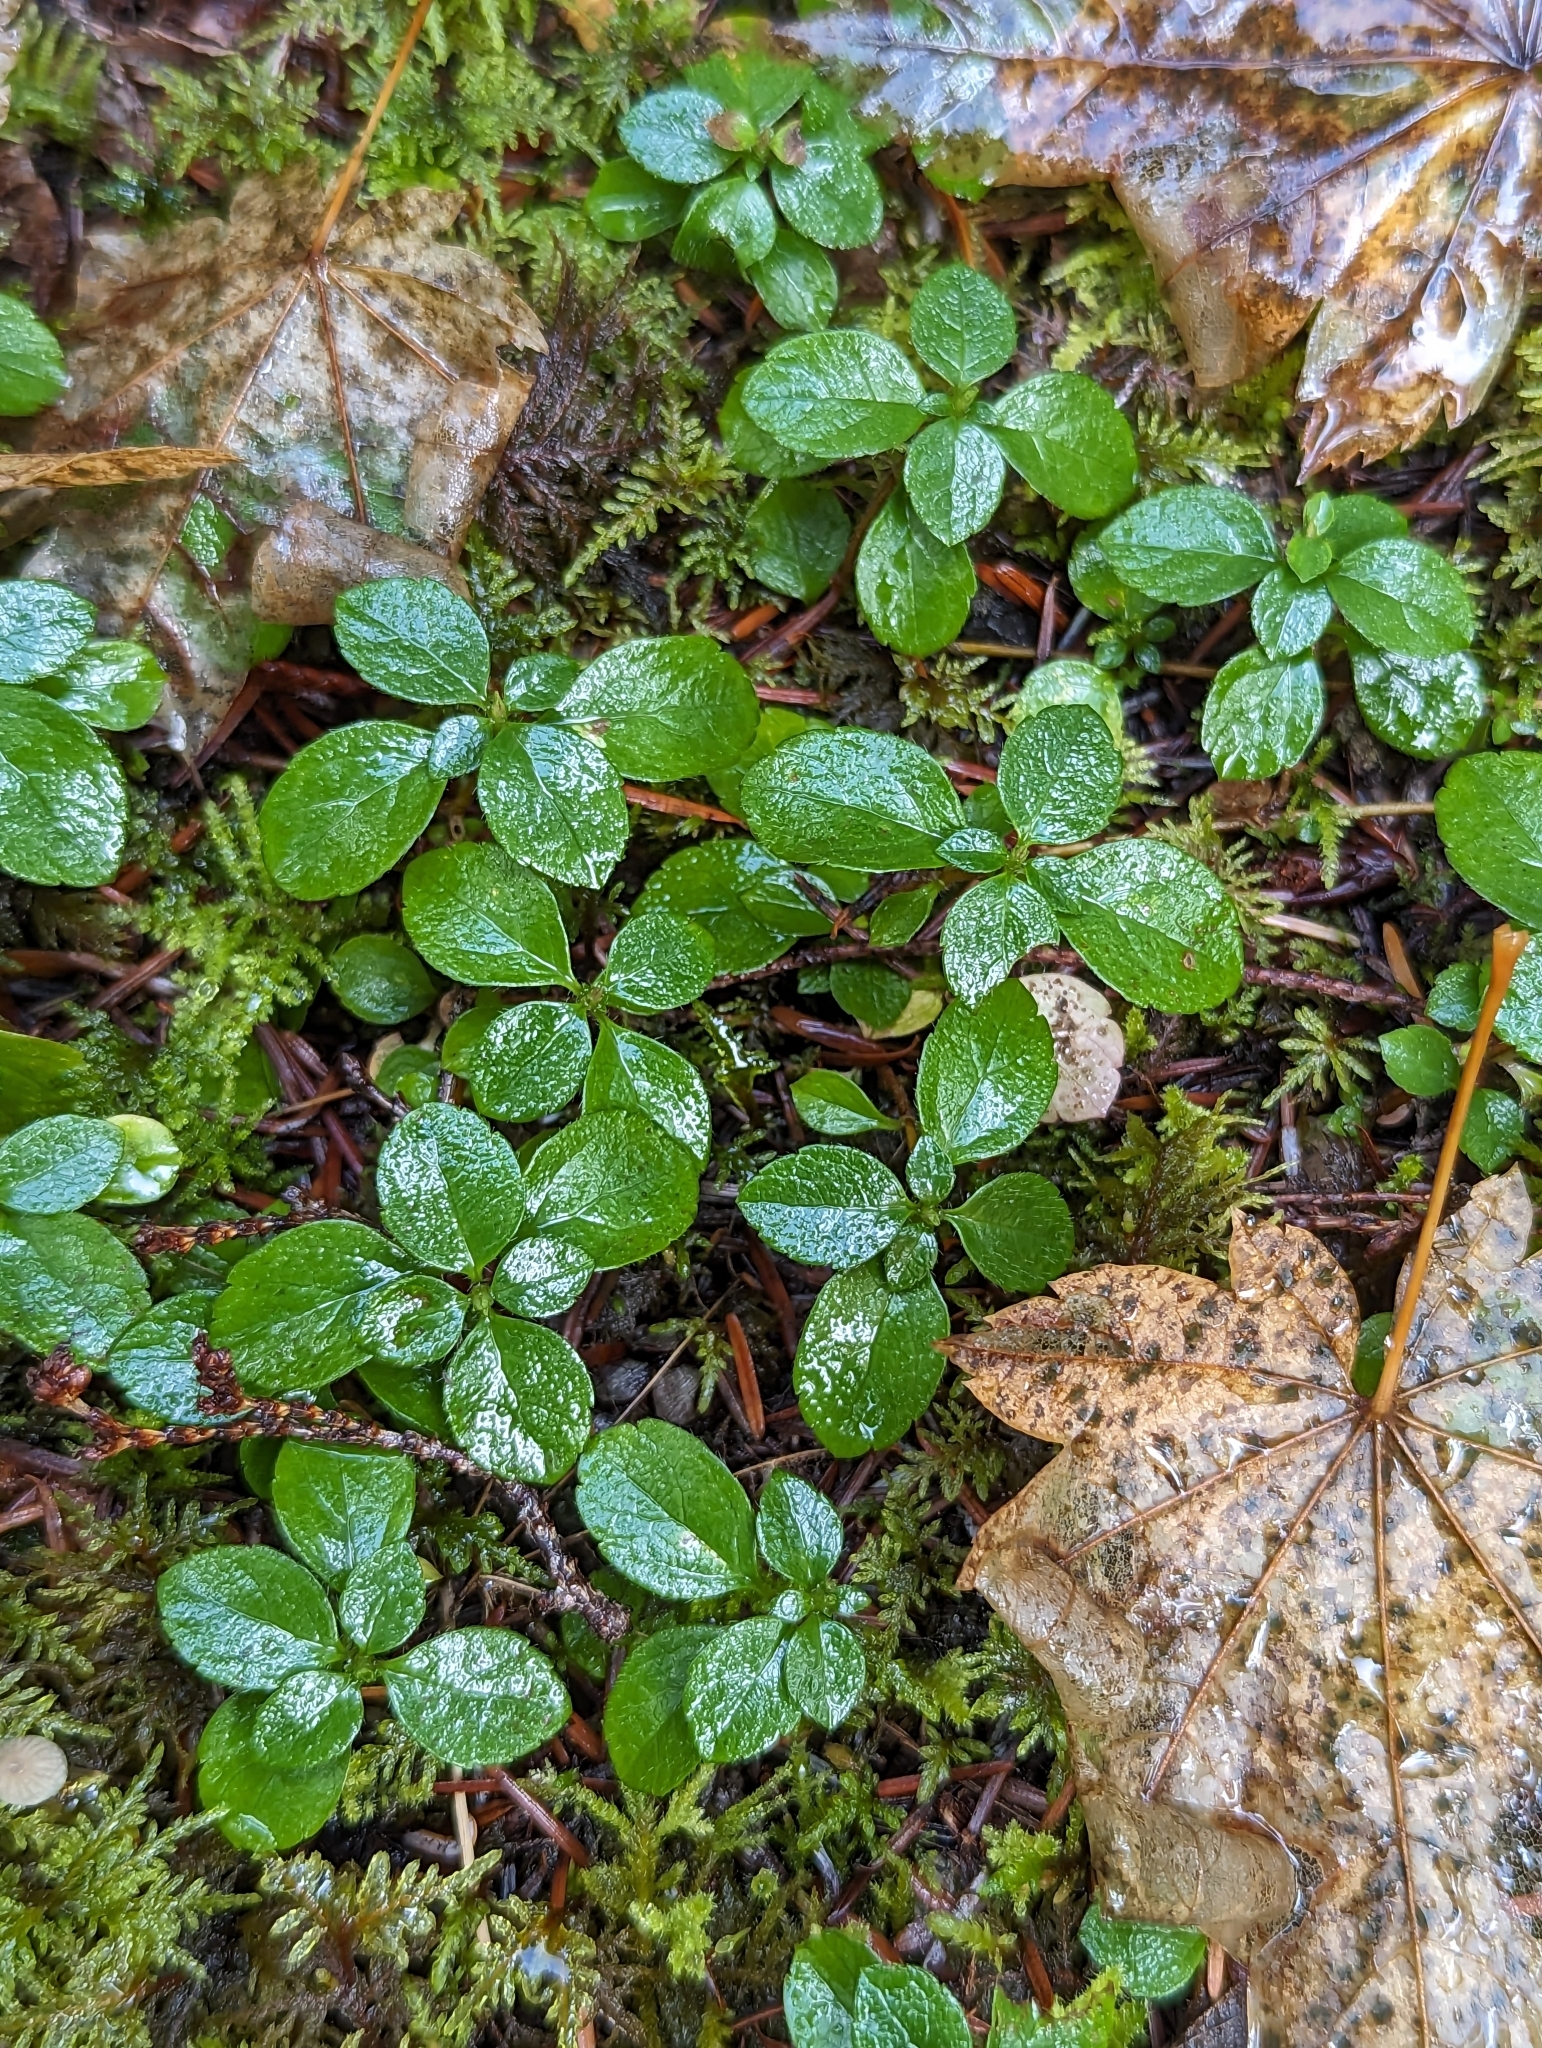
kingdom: Plantae
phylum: Tracheophyta
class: Magnoliopsida
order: Dipsacales
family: Caprifoliaceae
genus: Linnaea
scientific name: Linnaea borealis
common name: Twinflower
